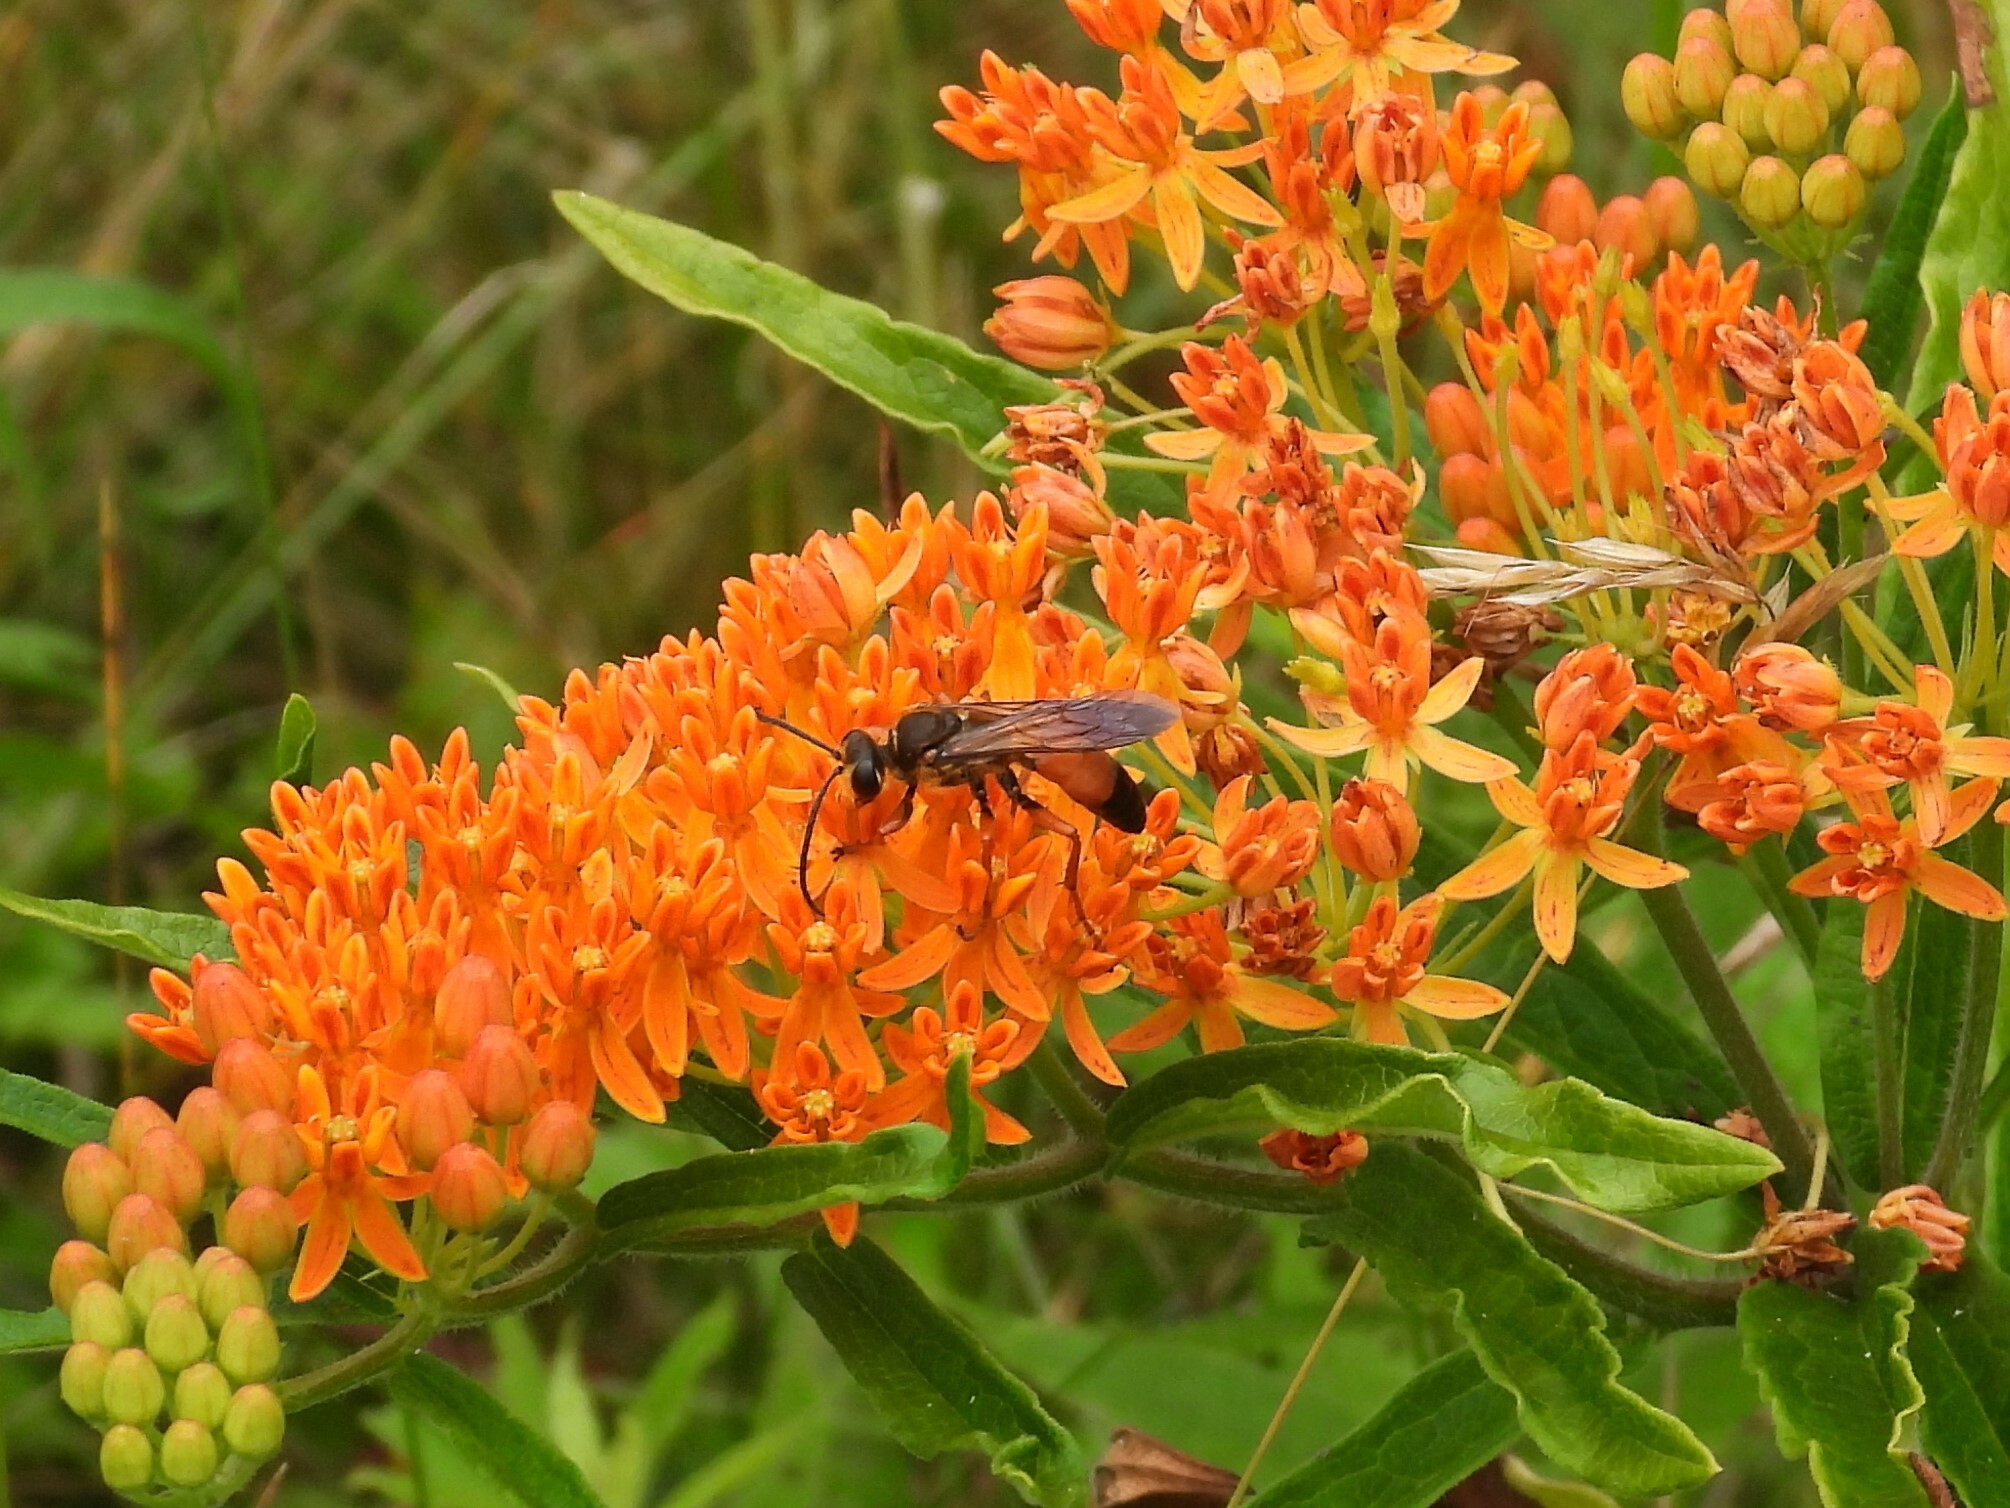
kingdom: Animalia
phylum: Arthropoda
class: Insecta
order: Hymenoptera
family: Sphecidae
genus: Sphex
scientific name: Sphex ichneumoneus
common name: Great golden digger wasp
